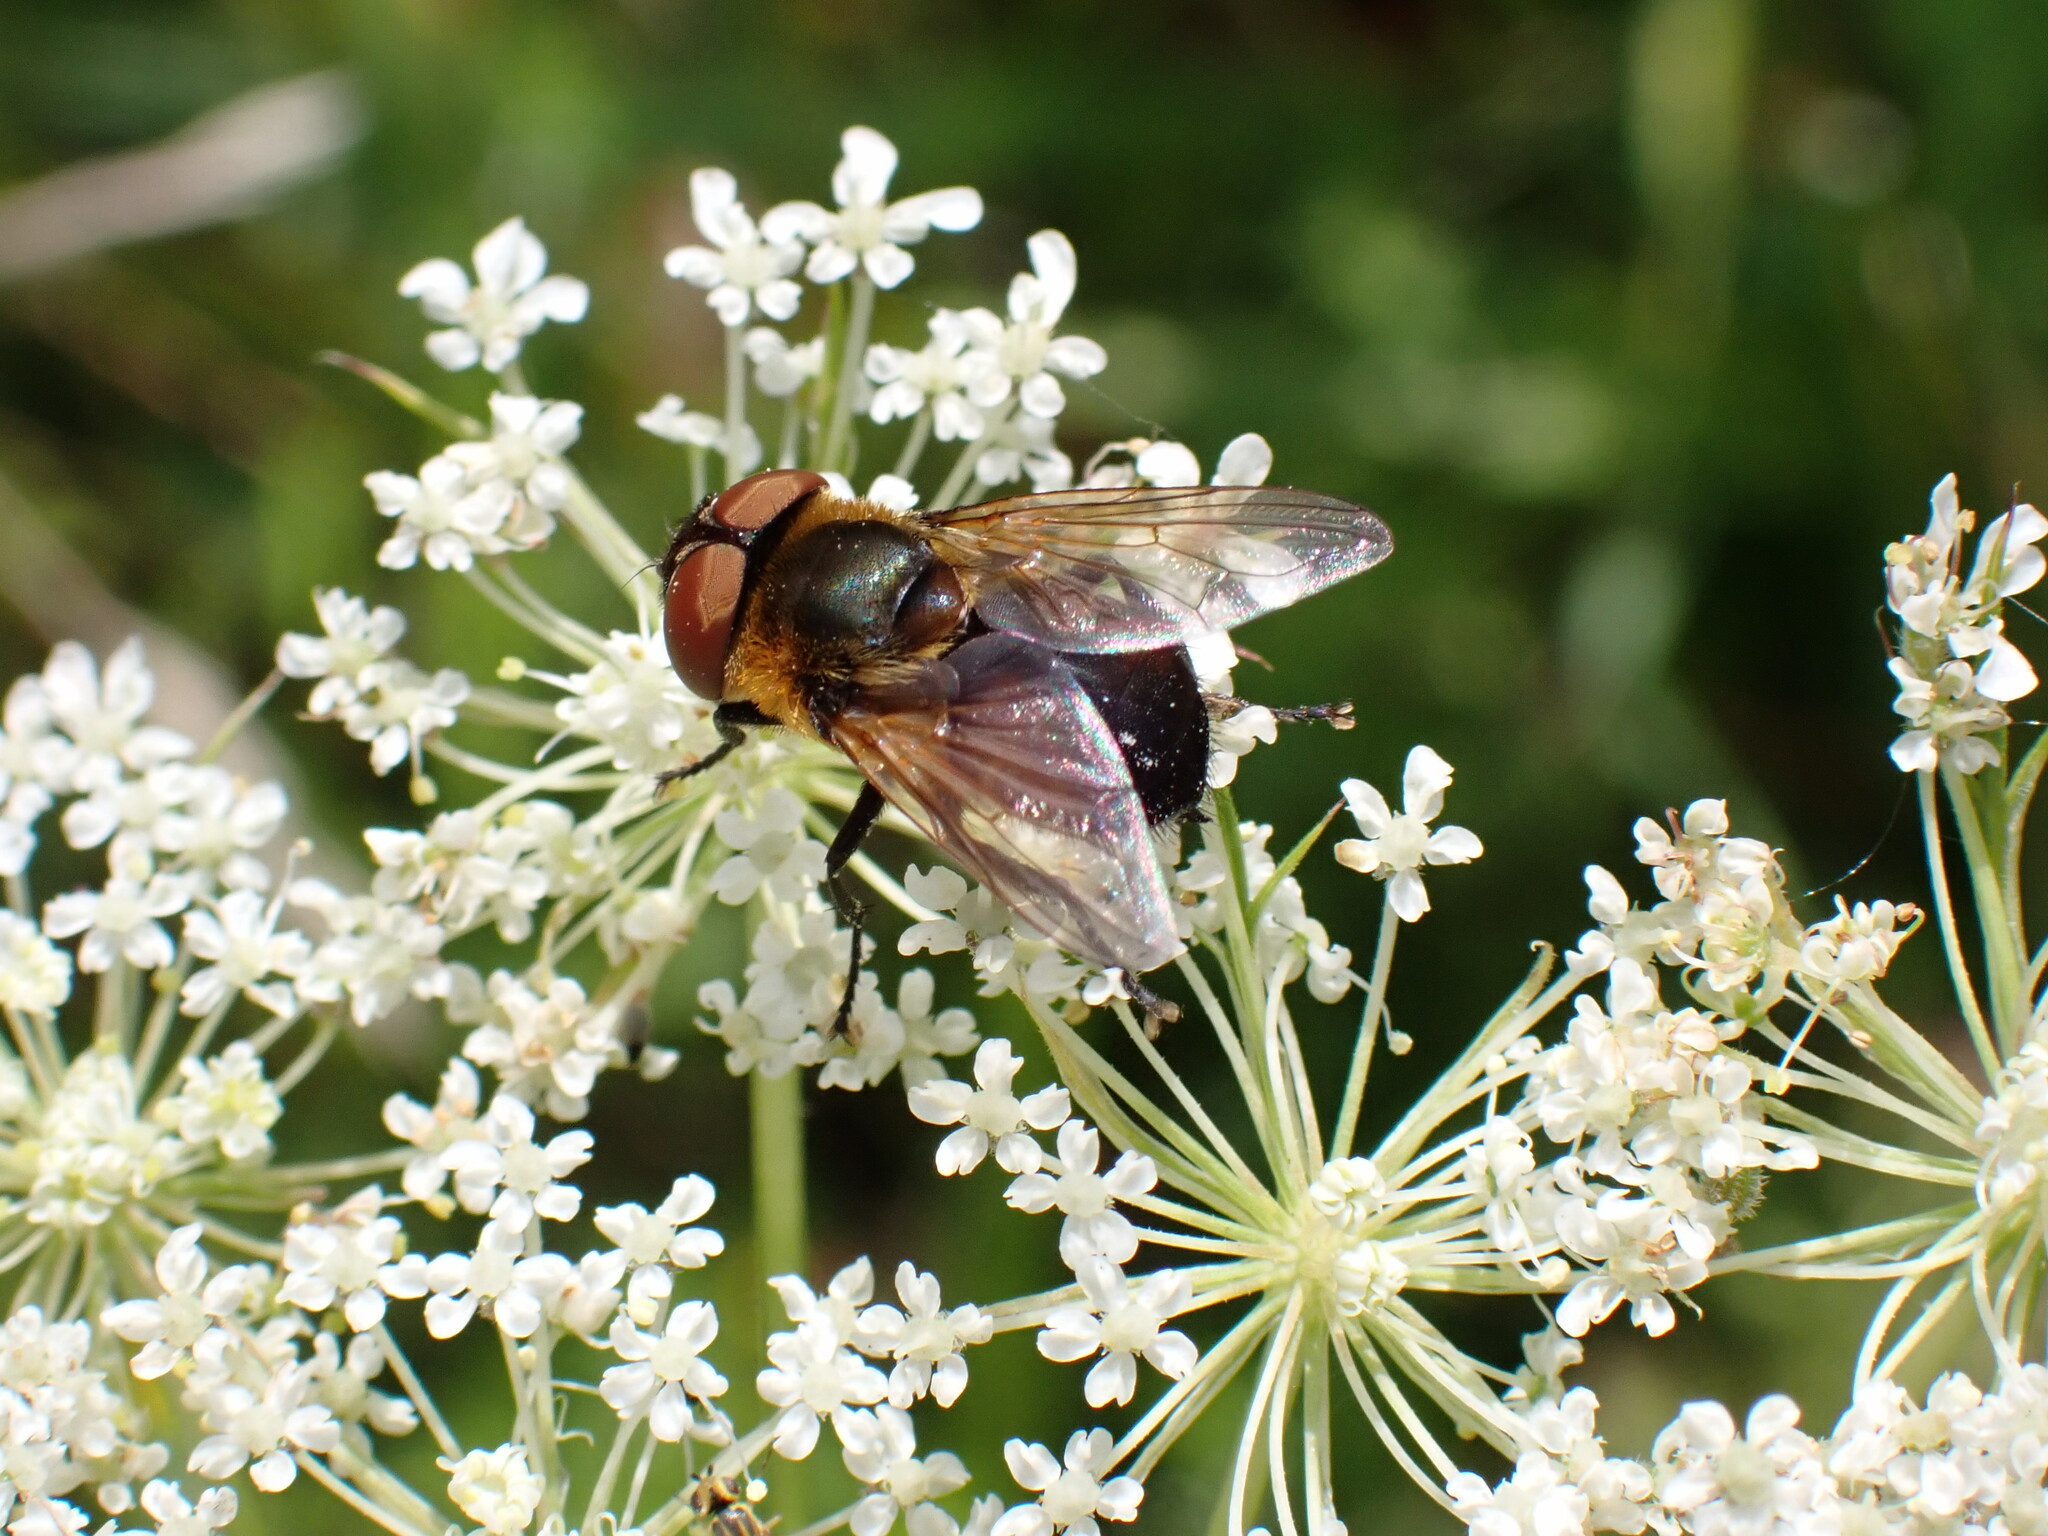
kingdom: Animalia
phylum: Arthropoda
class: Insecta
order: Diptera
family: Tachinidae
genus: Phasia
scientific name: Phasia hemiptera
